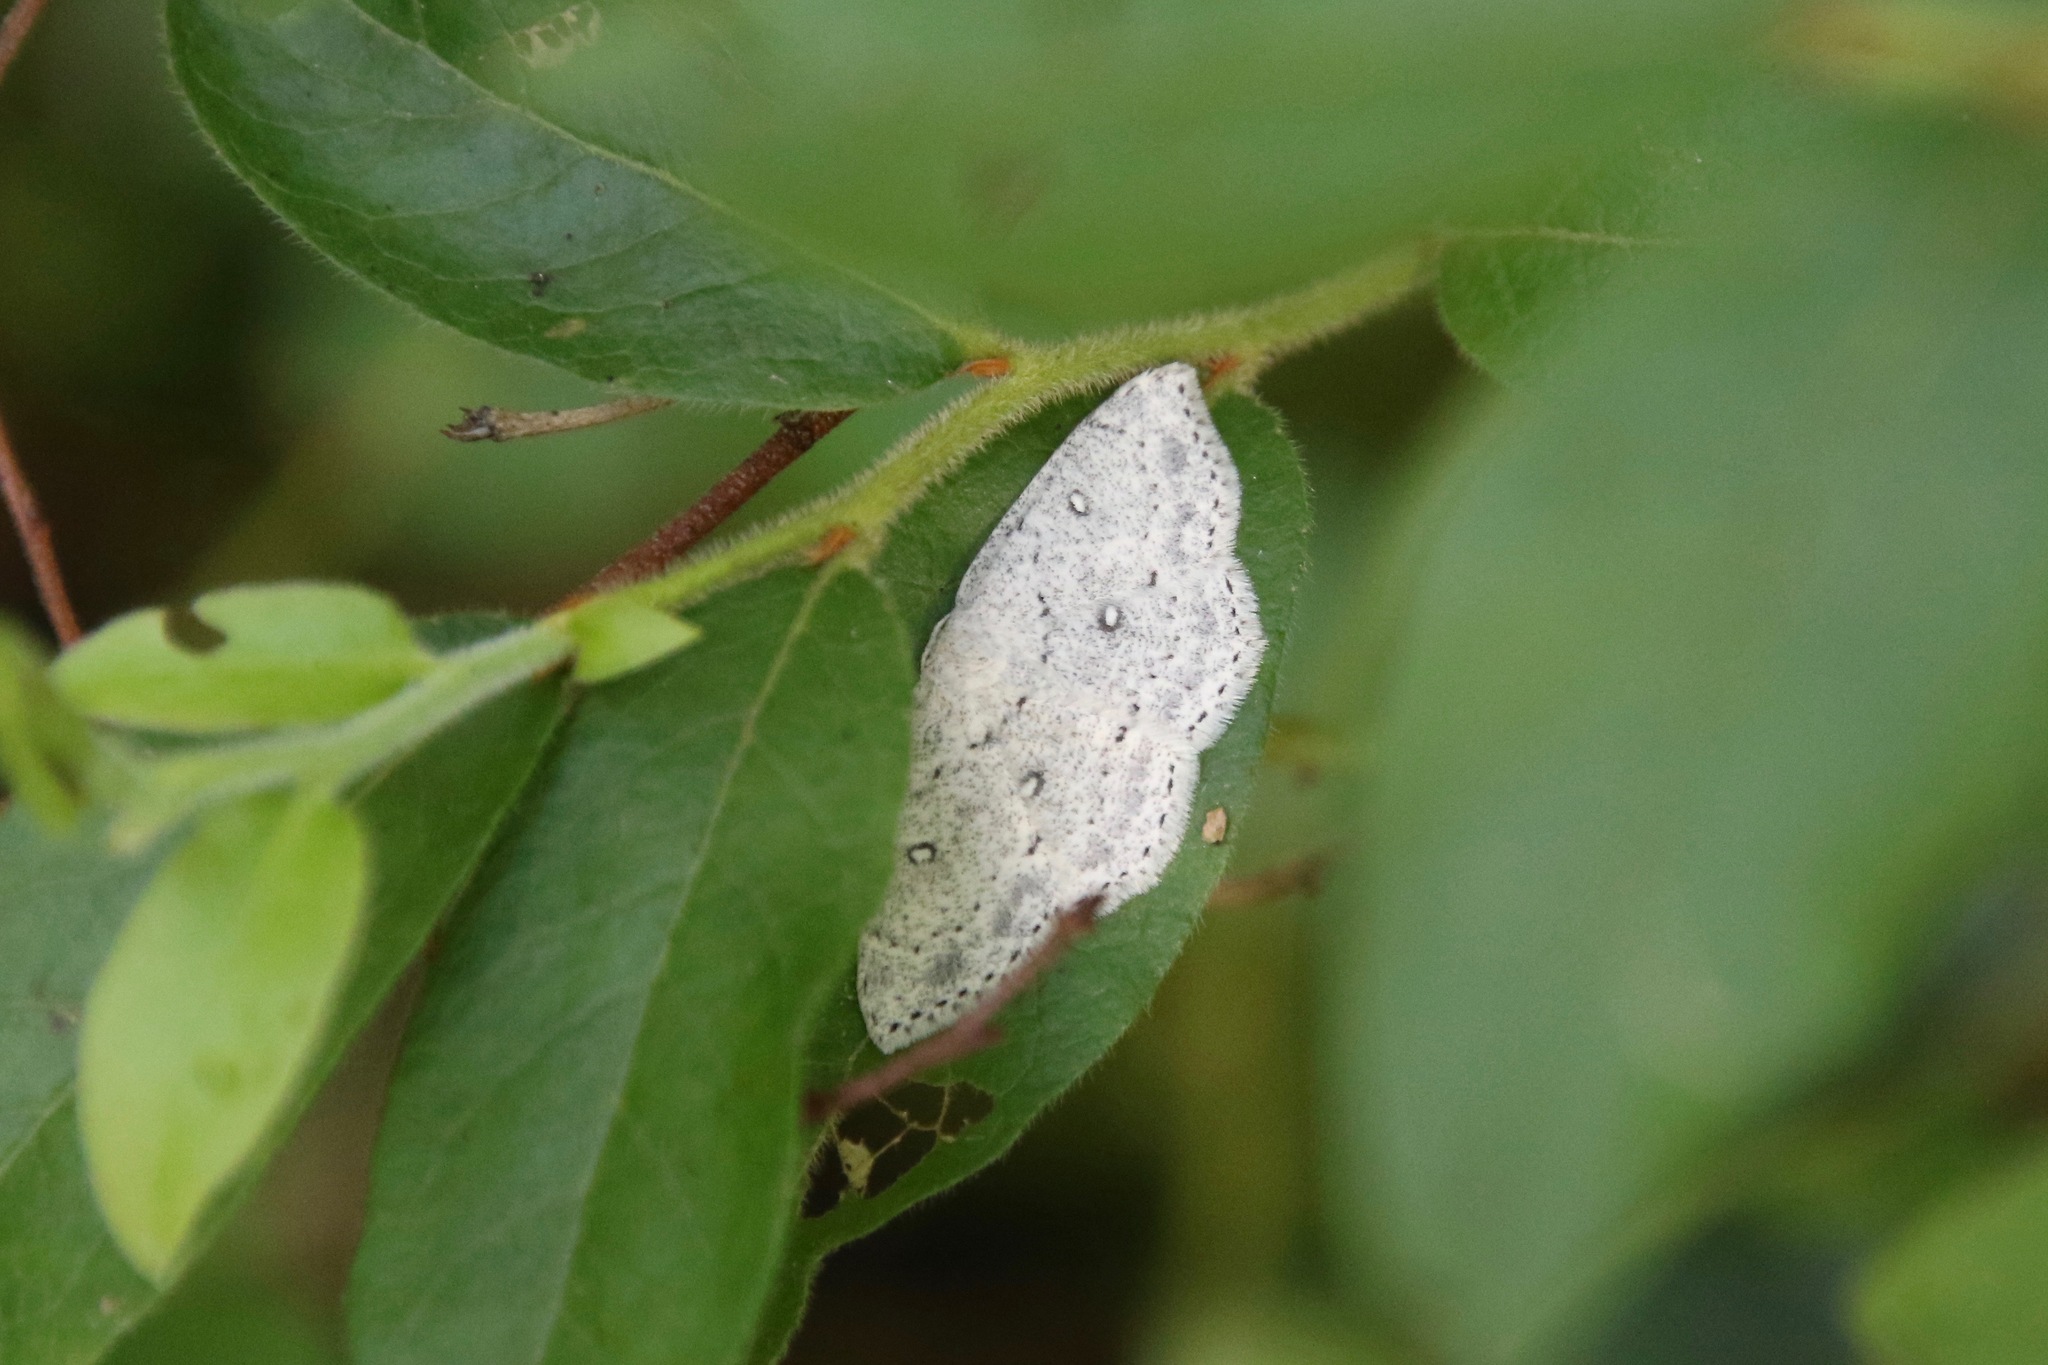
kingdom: Animalia
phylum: Arthropoda
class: Insecta
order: Lepidoptera
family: Geometridae
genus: Cyclophora
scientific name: Cyclophora pendulinaria
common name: Sweet fern geometer
